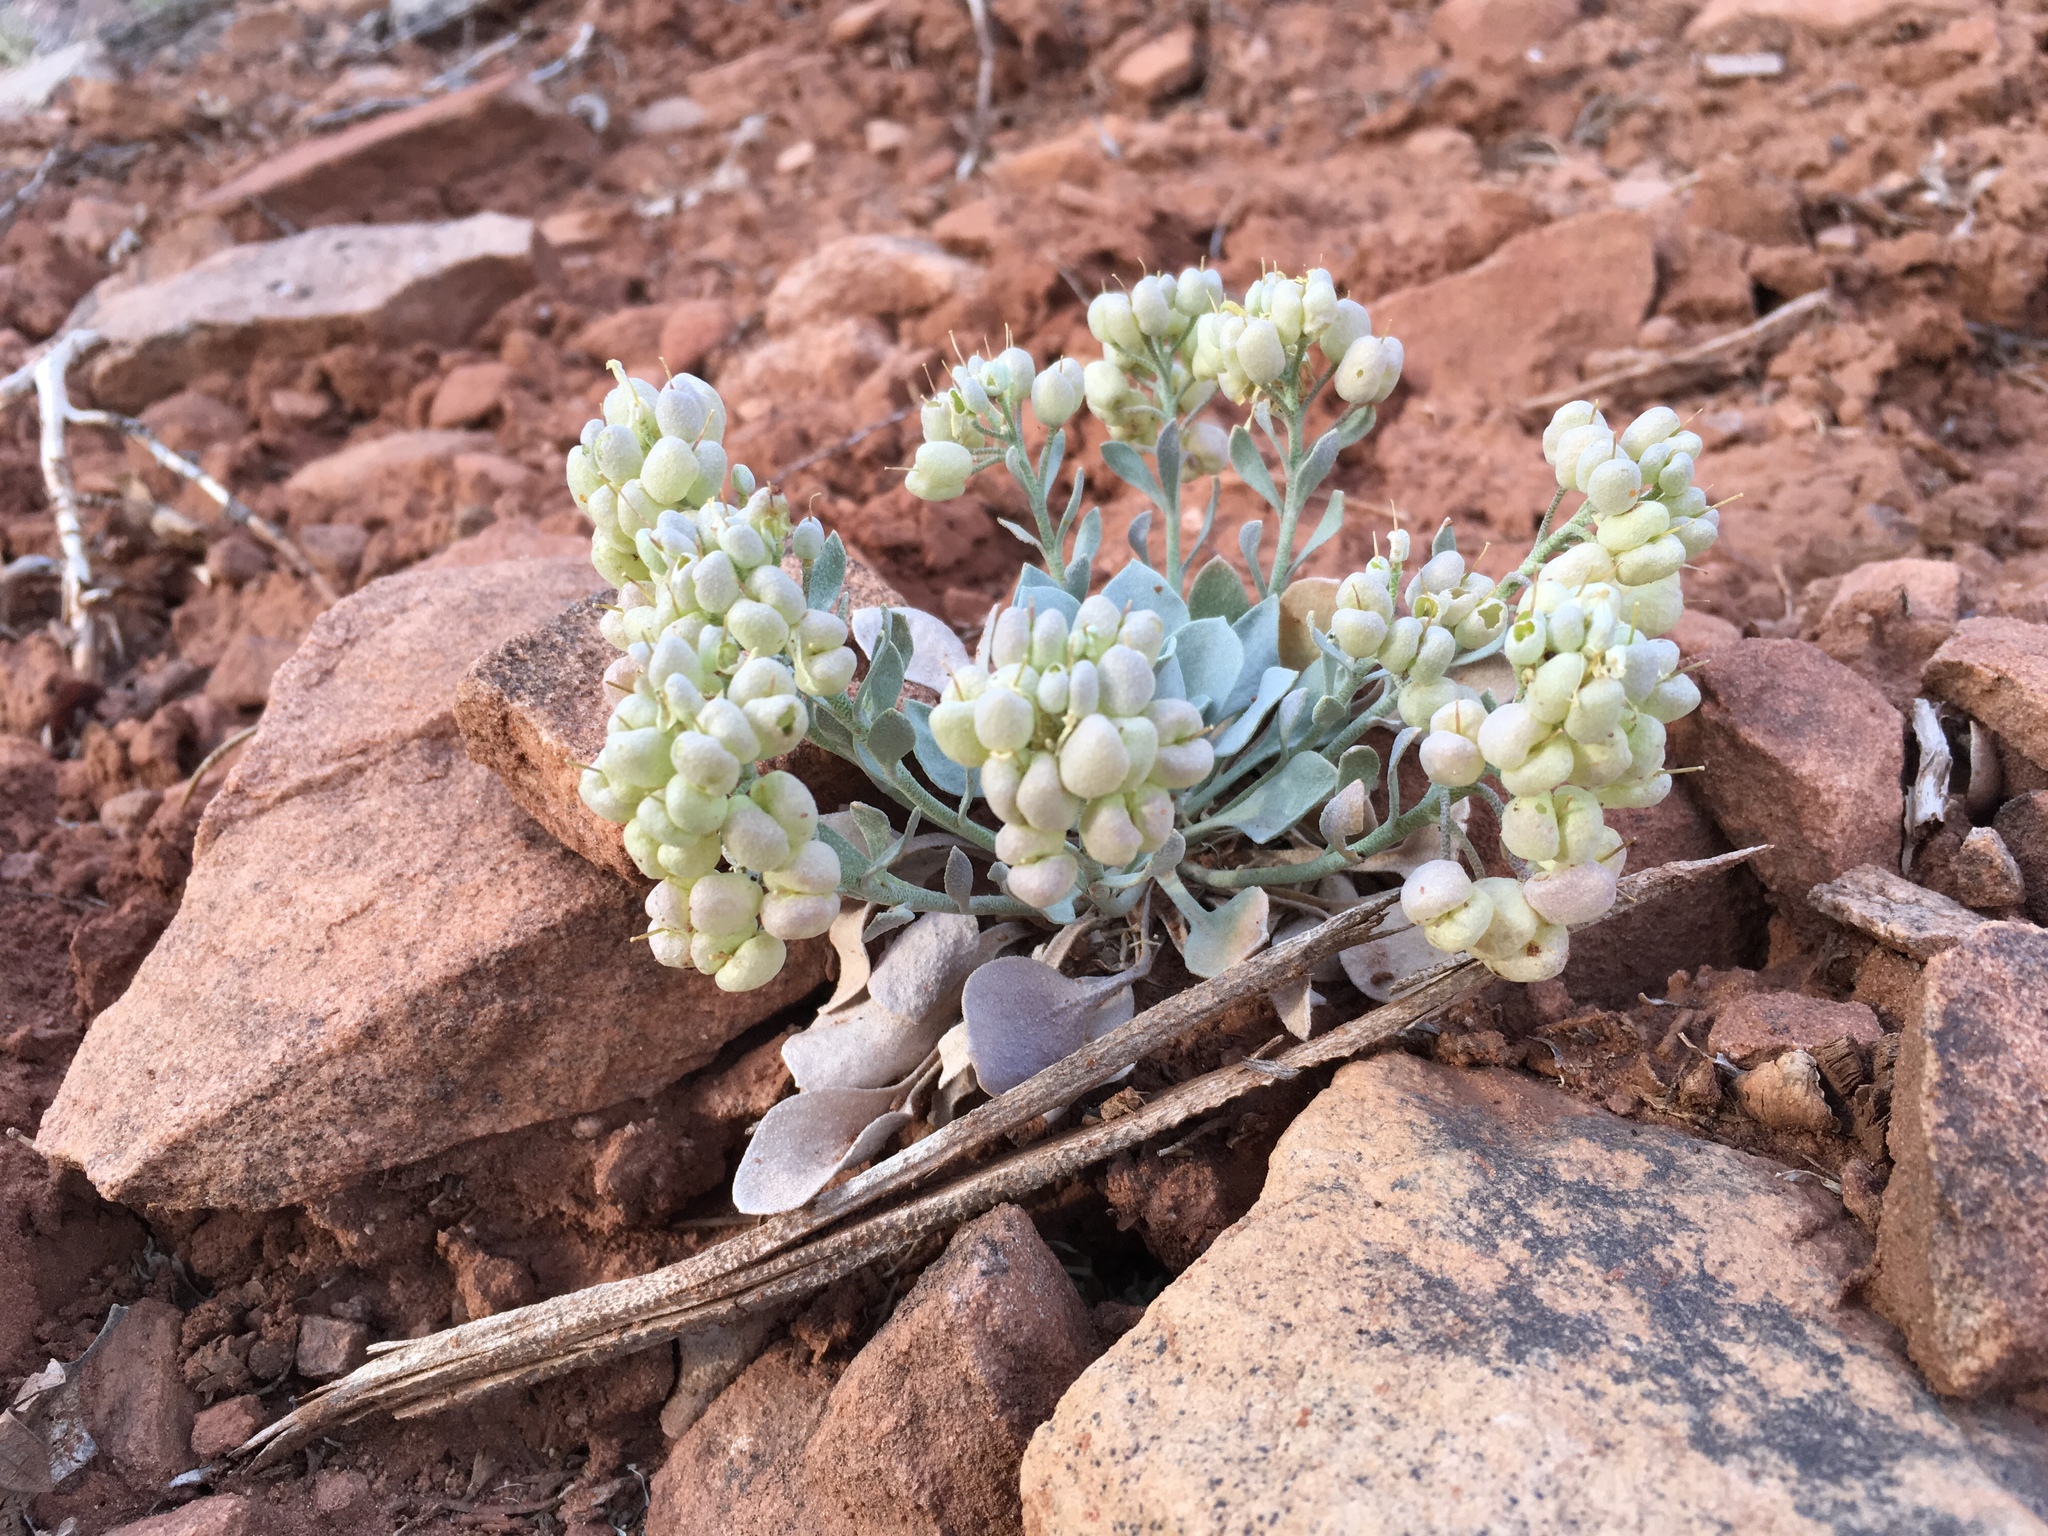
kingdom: Plantae
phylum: Tracheophyta
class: Magnoliopsida
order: Brassicales
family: Brassicaceae
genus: Physaria
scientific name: Physaria acutifolia
